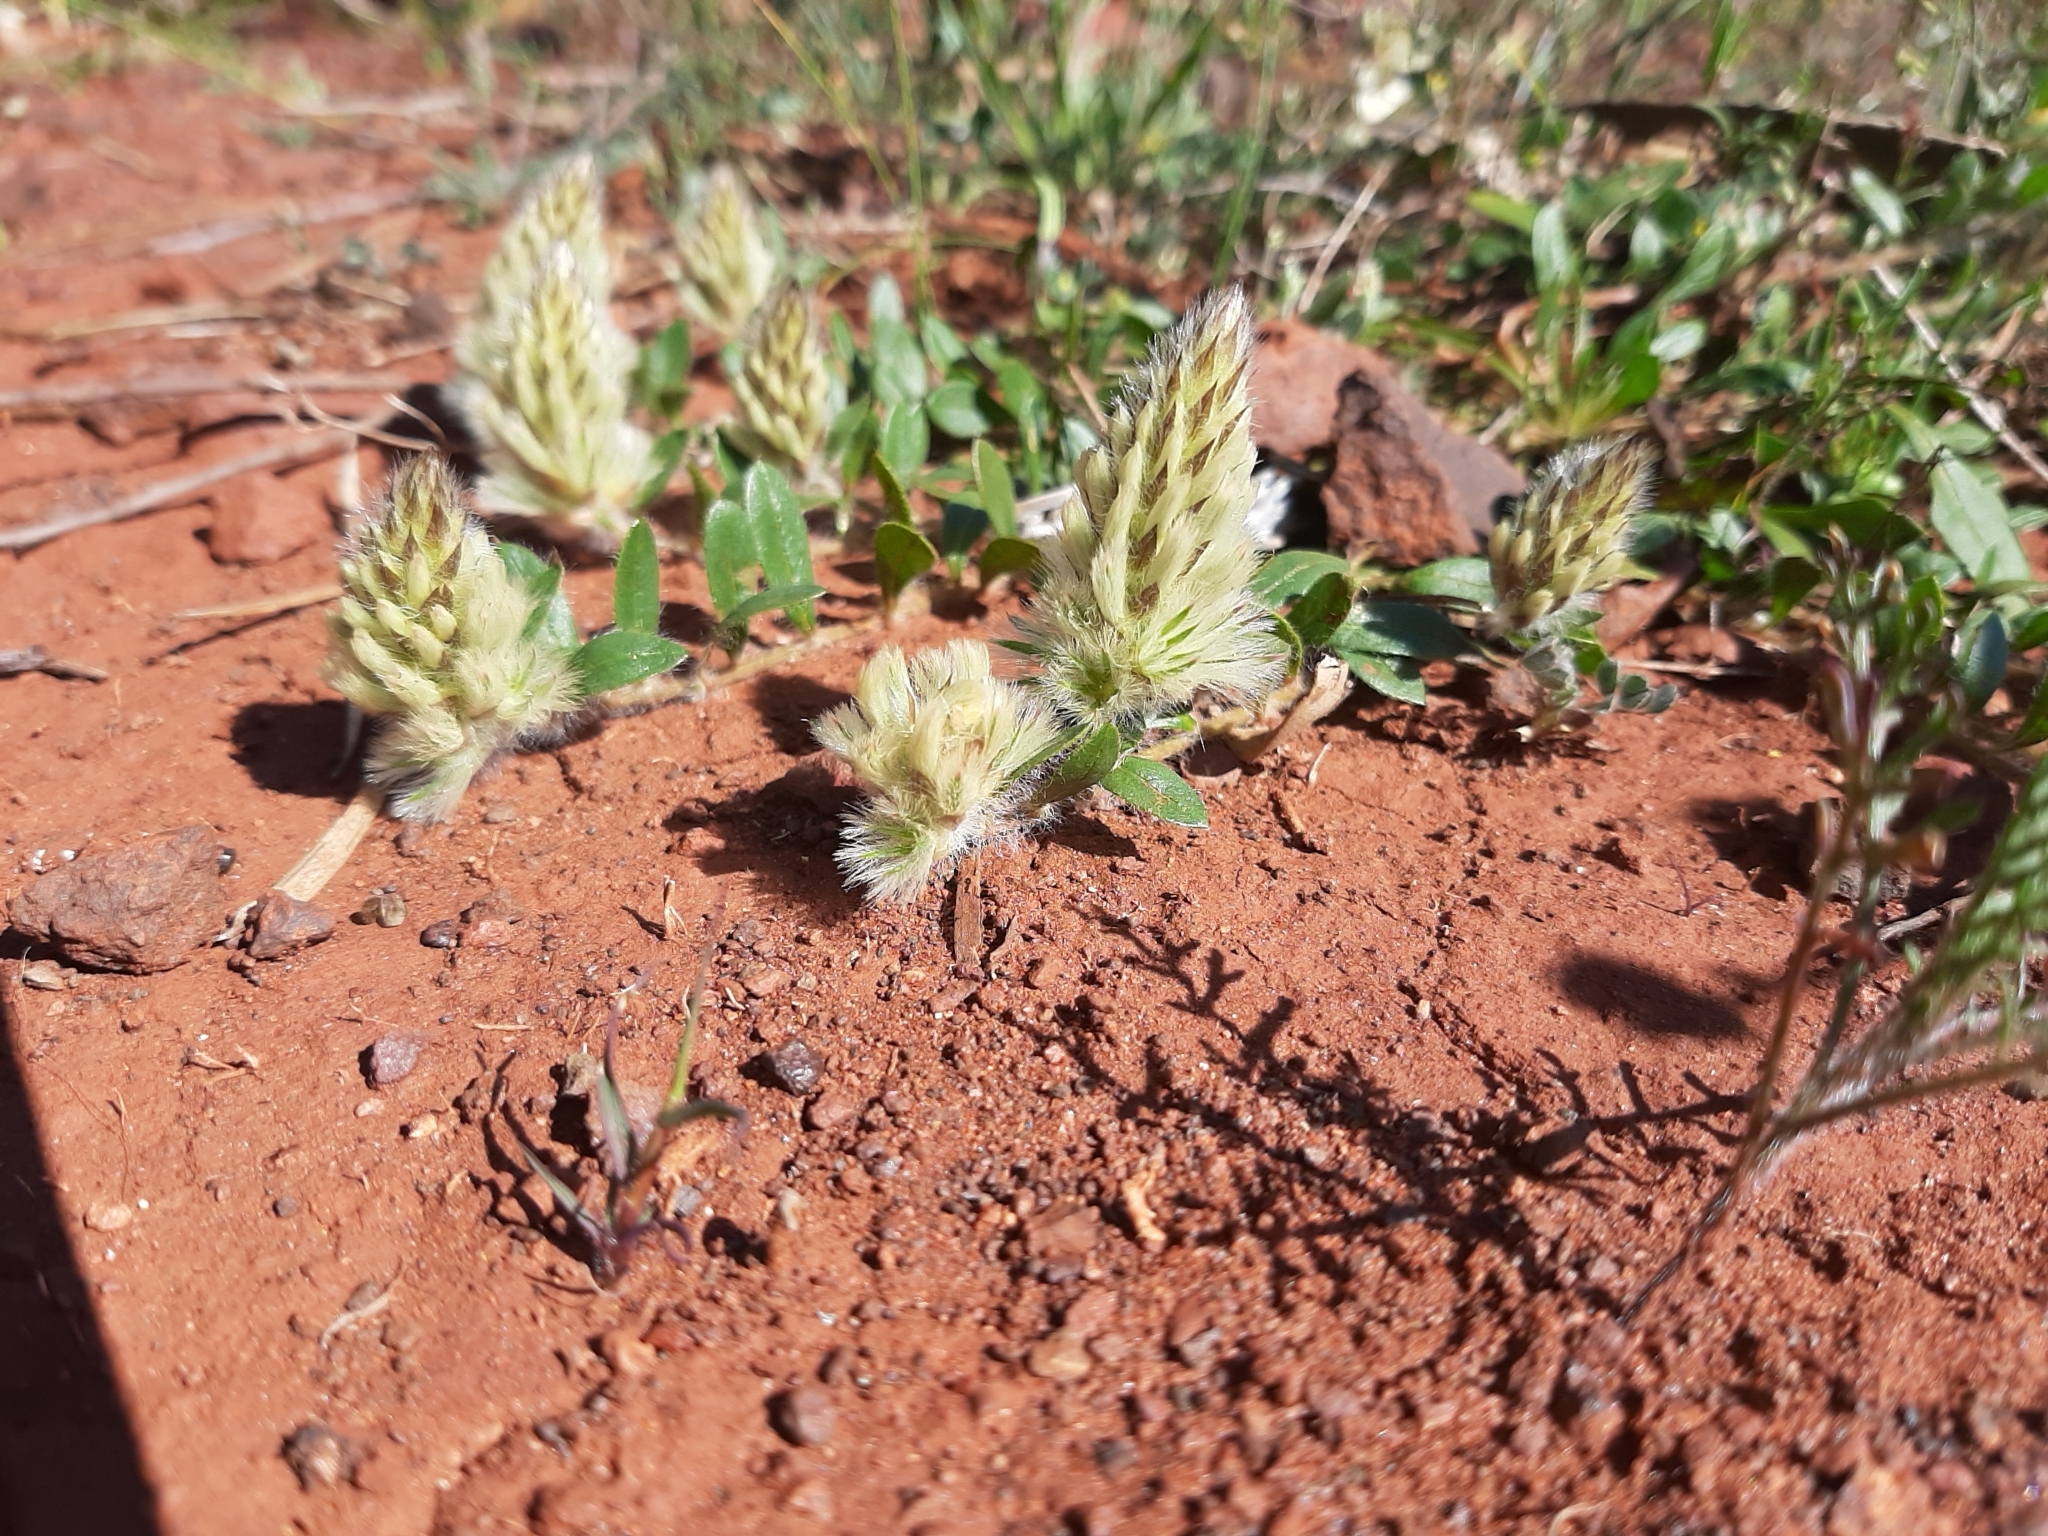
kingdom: Plantae
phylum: Tracheophyta
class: Magnoliopsida
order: Caryophyllales
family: Amaranthaceae
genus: Ptilotus
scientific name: Ptilotus spathulatus
